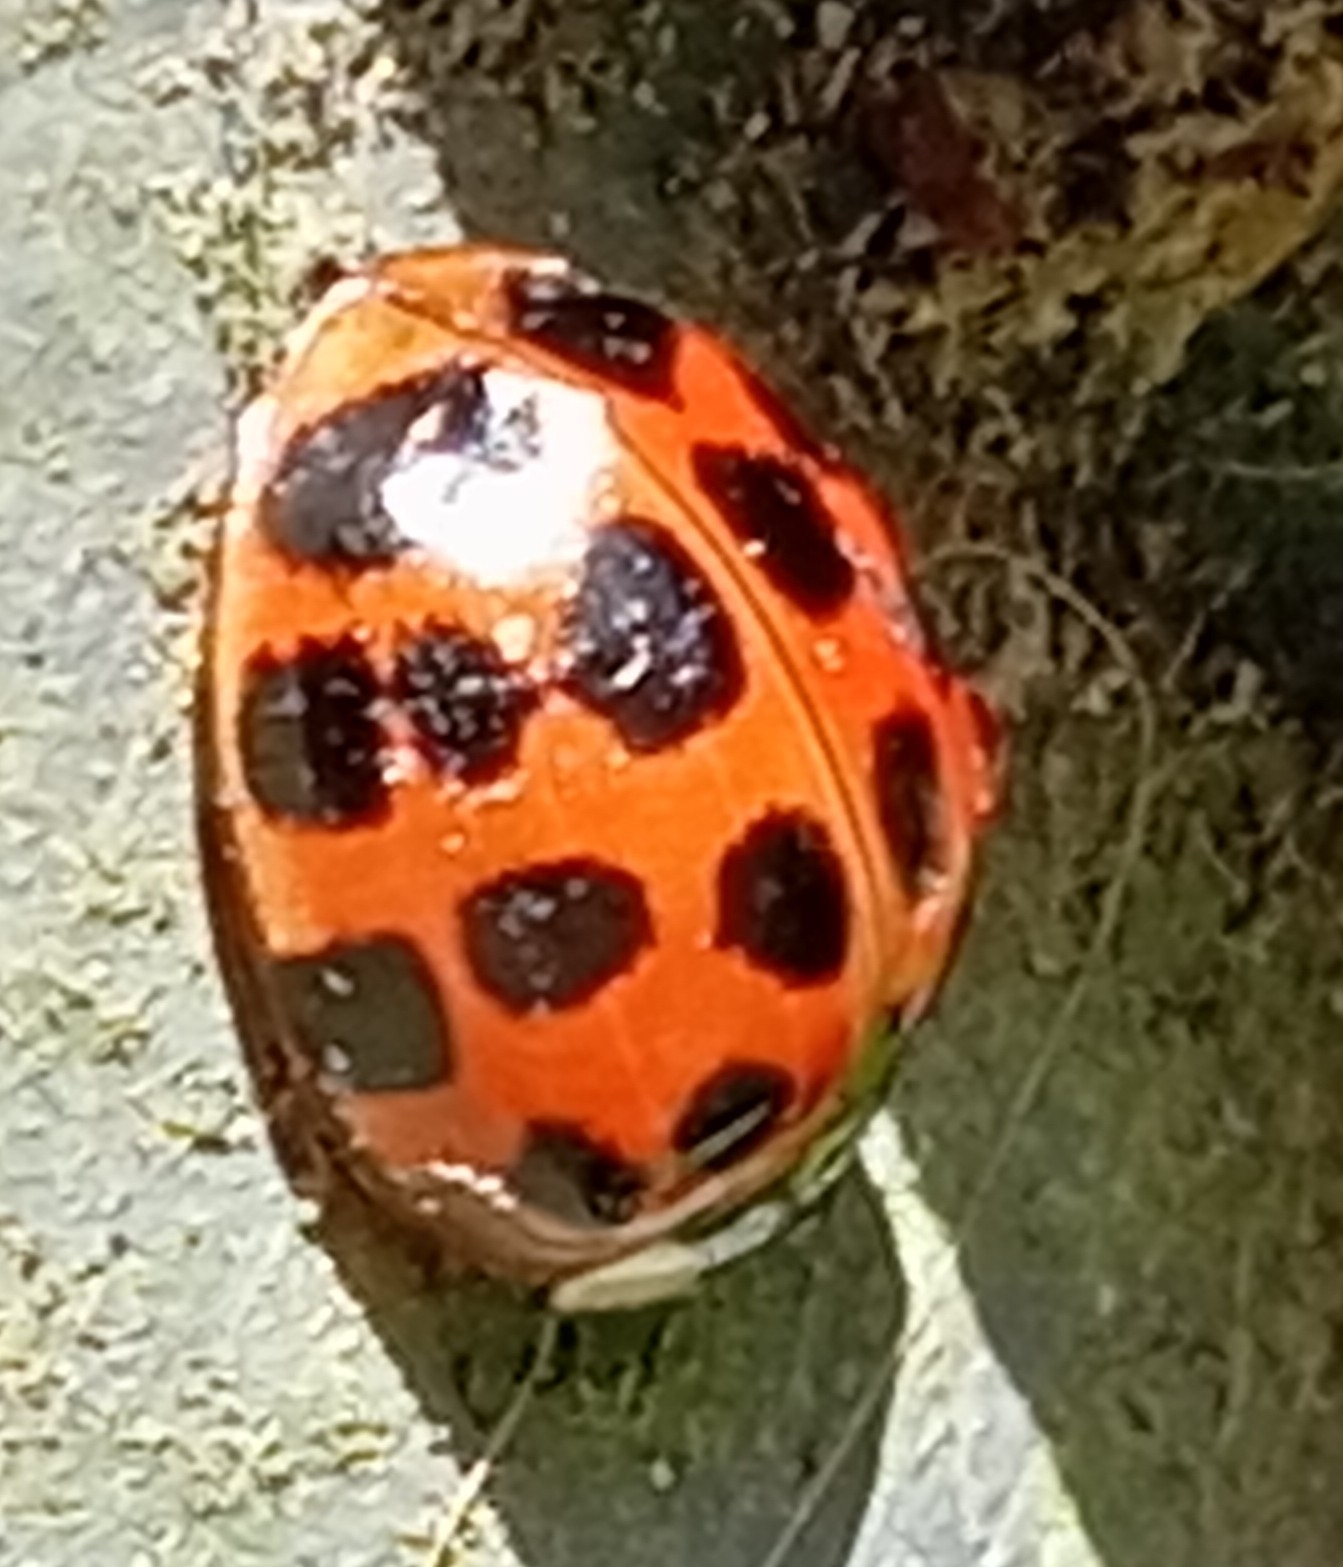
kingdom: Animalia
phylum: Arthropoda
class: Insecta
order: Coleoptera
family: Coccinellidae
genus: Harmonia
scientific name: Harmonia axyridis
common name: Harlequin ladybird
